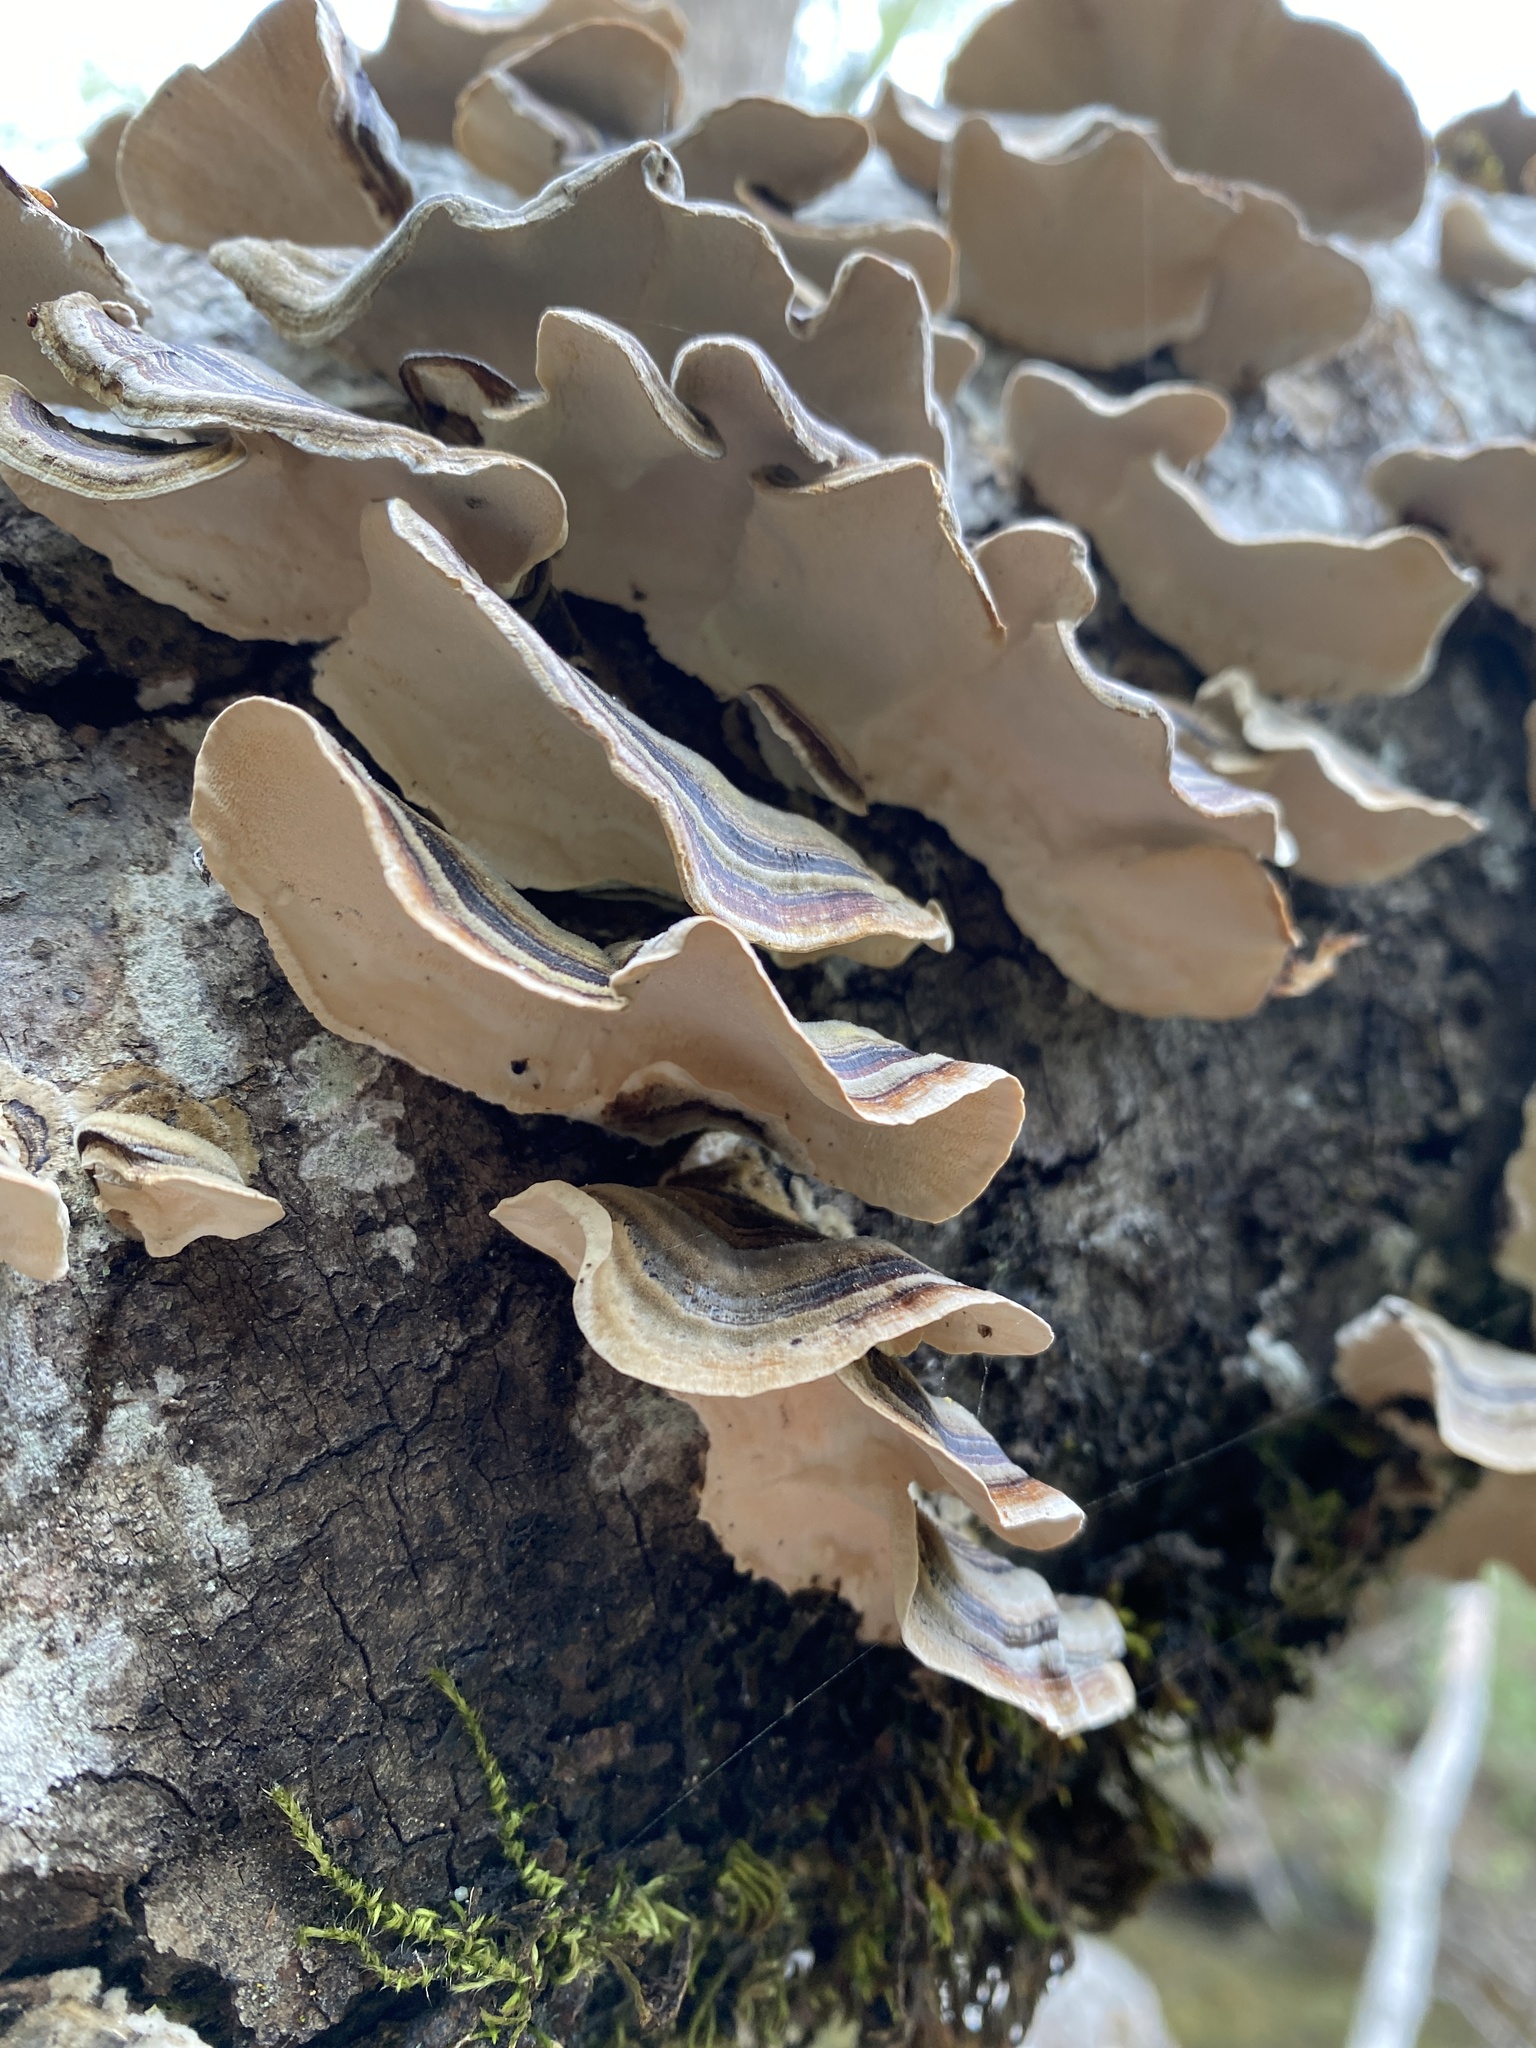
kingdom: Fungi
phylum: Basidiomycota
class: Agaricomycetes
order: Polyporales
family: Polyporaceae
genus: Trametes
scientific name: Trametes versicolor
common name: Turkeytail
